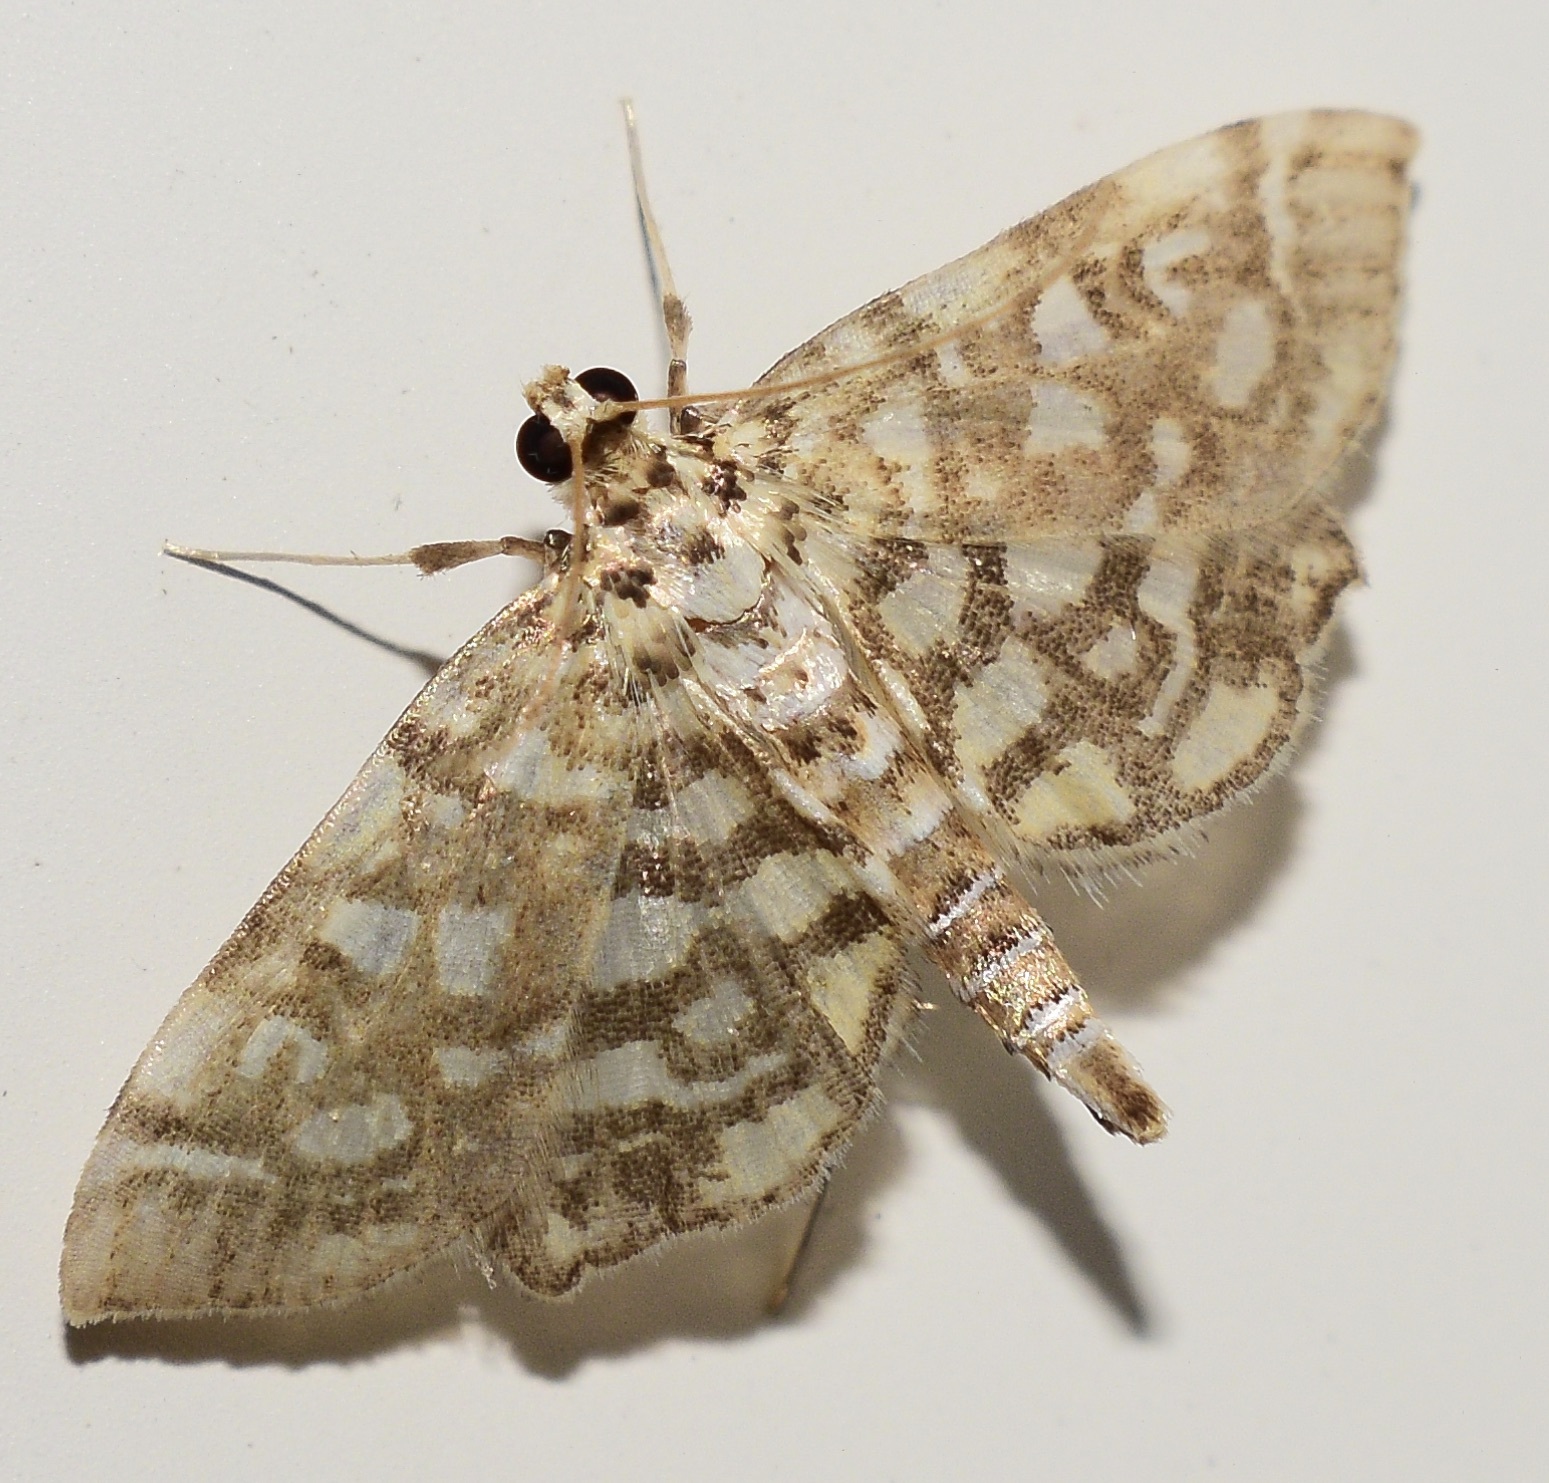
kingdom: Animalia
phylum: Arthropoda
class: Insecta
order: Lepidoptera
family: Crambidae
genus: Lygropia
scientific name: Lygropia rivulalis
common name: Bog lygropia moth
